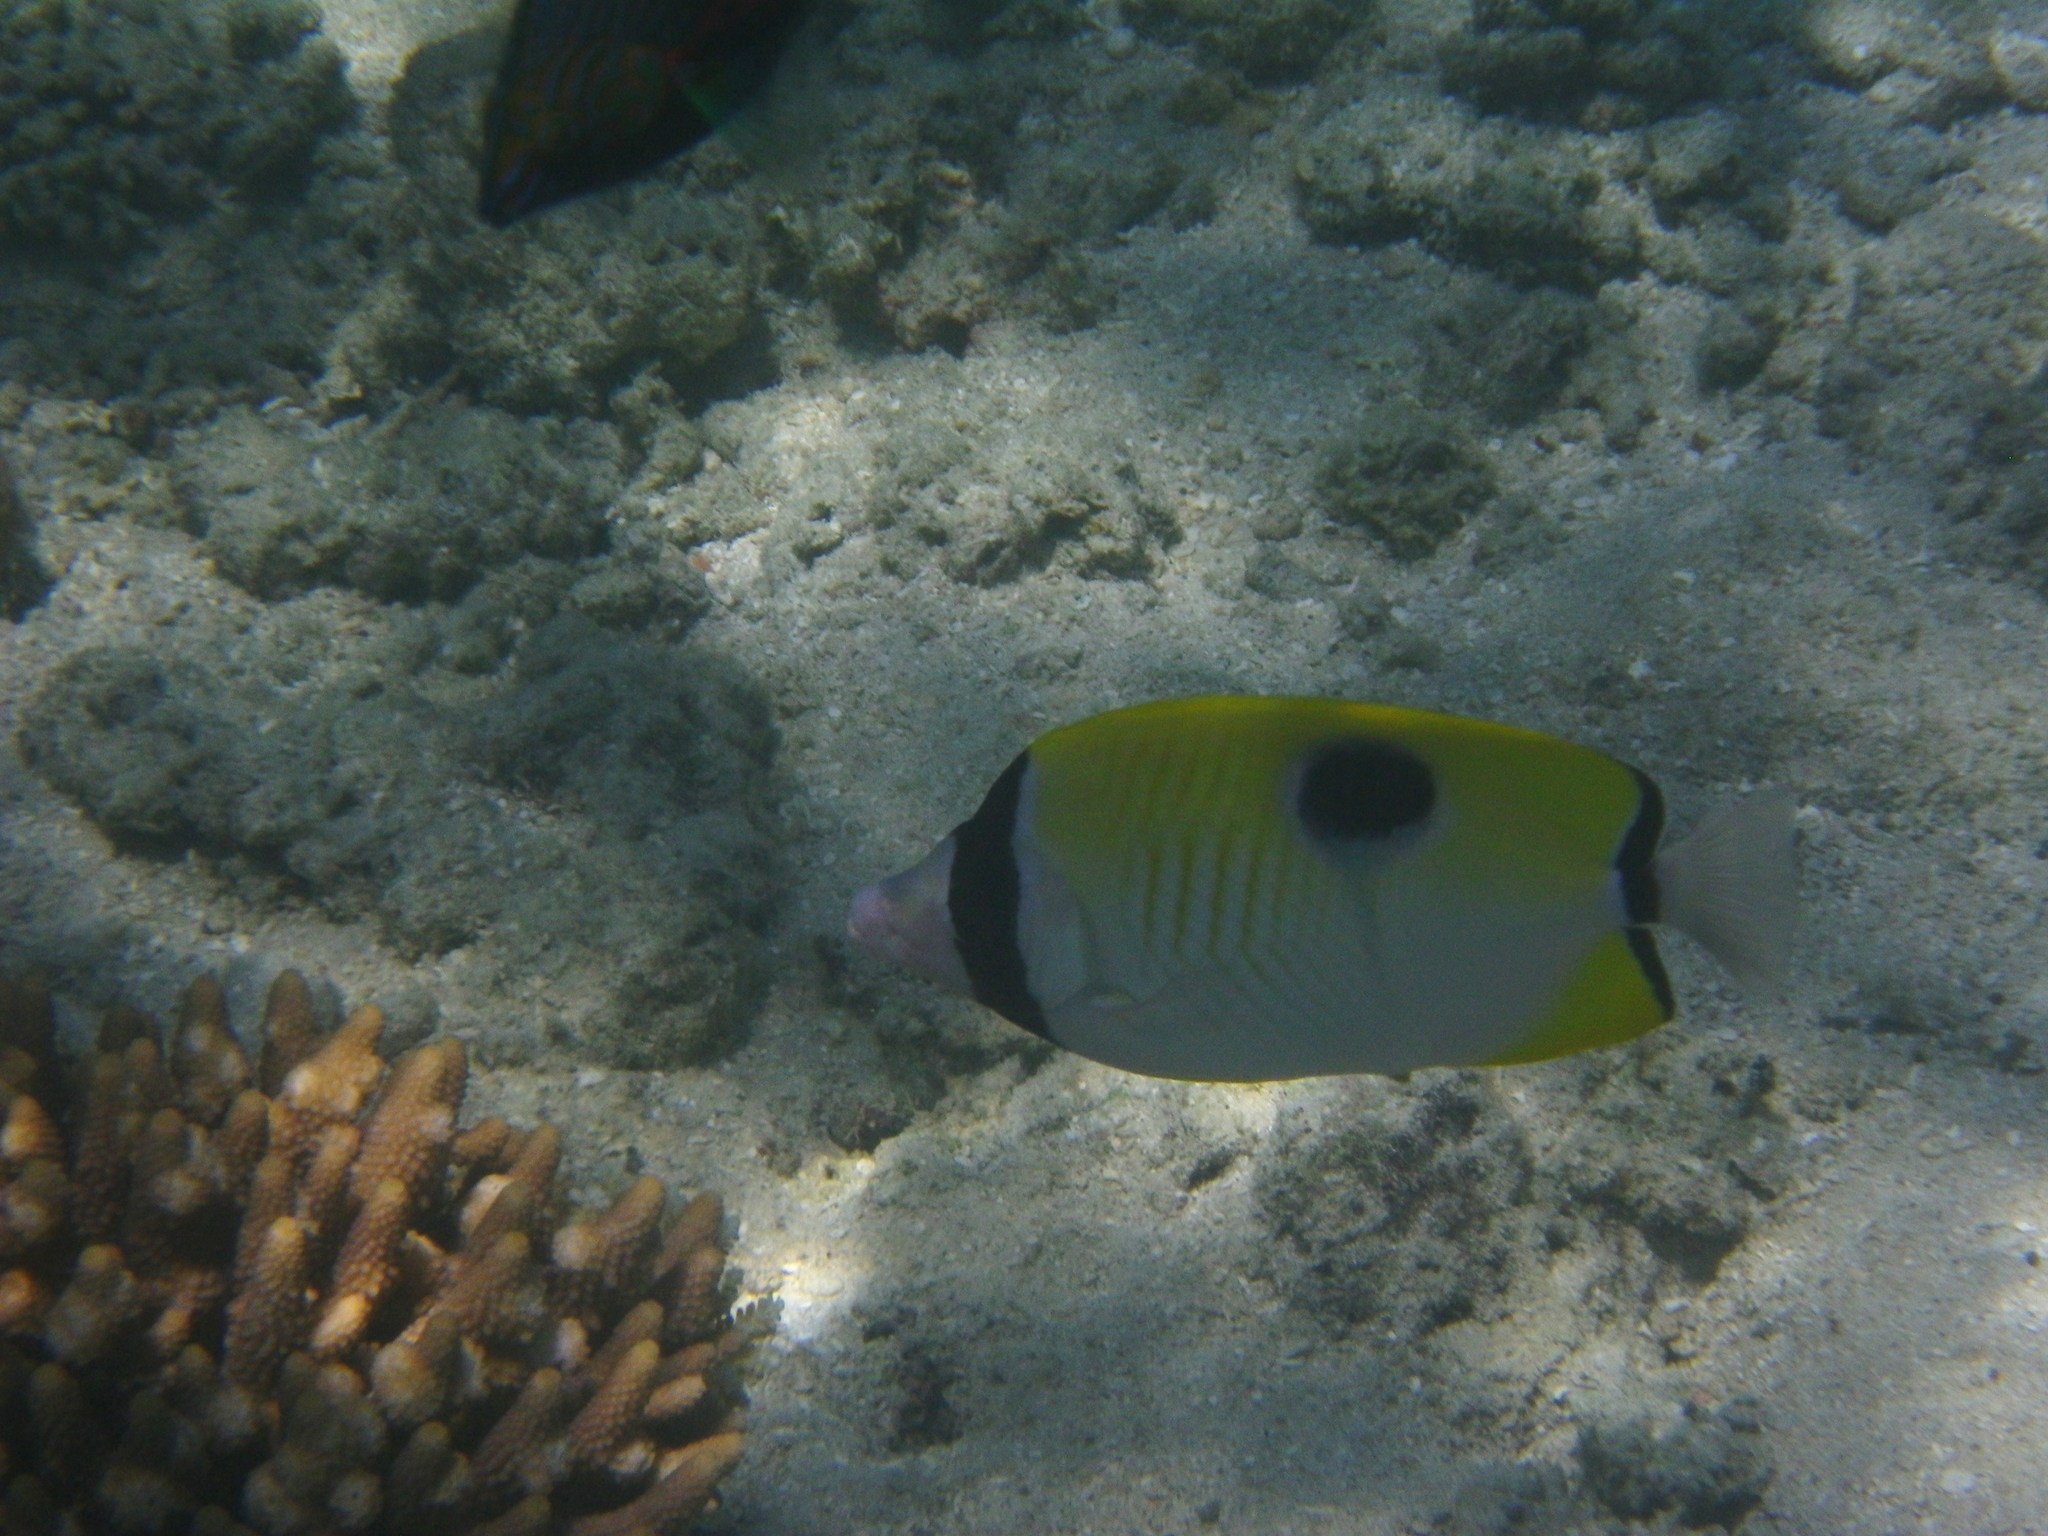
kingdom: Animalia
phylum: Chordata
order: Perciformes
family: Chaetodontidae
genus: Chaetodon
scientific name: Chaetodon unimaculatus
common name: Teardrop butterflyfish
